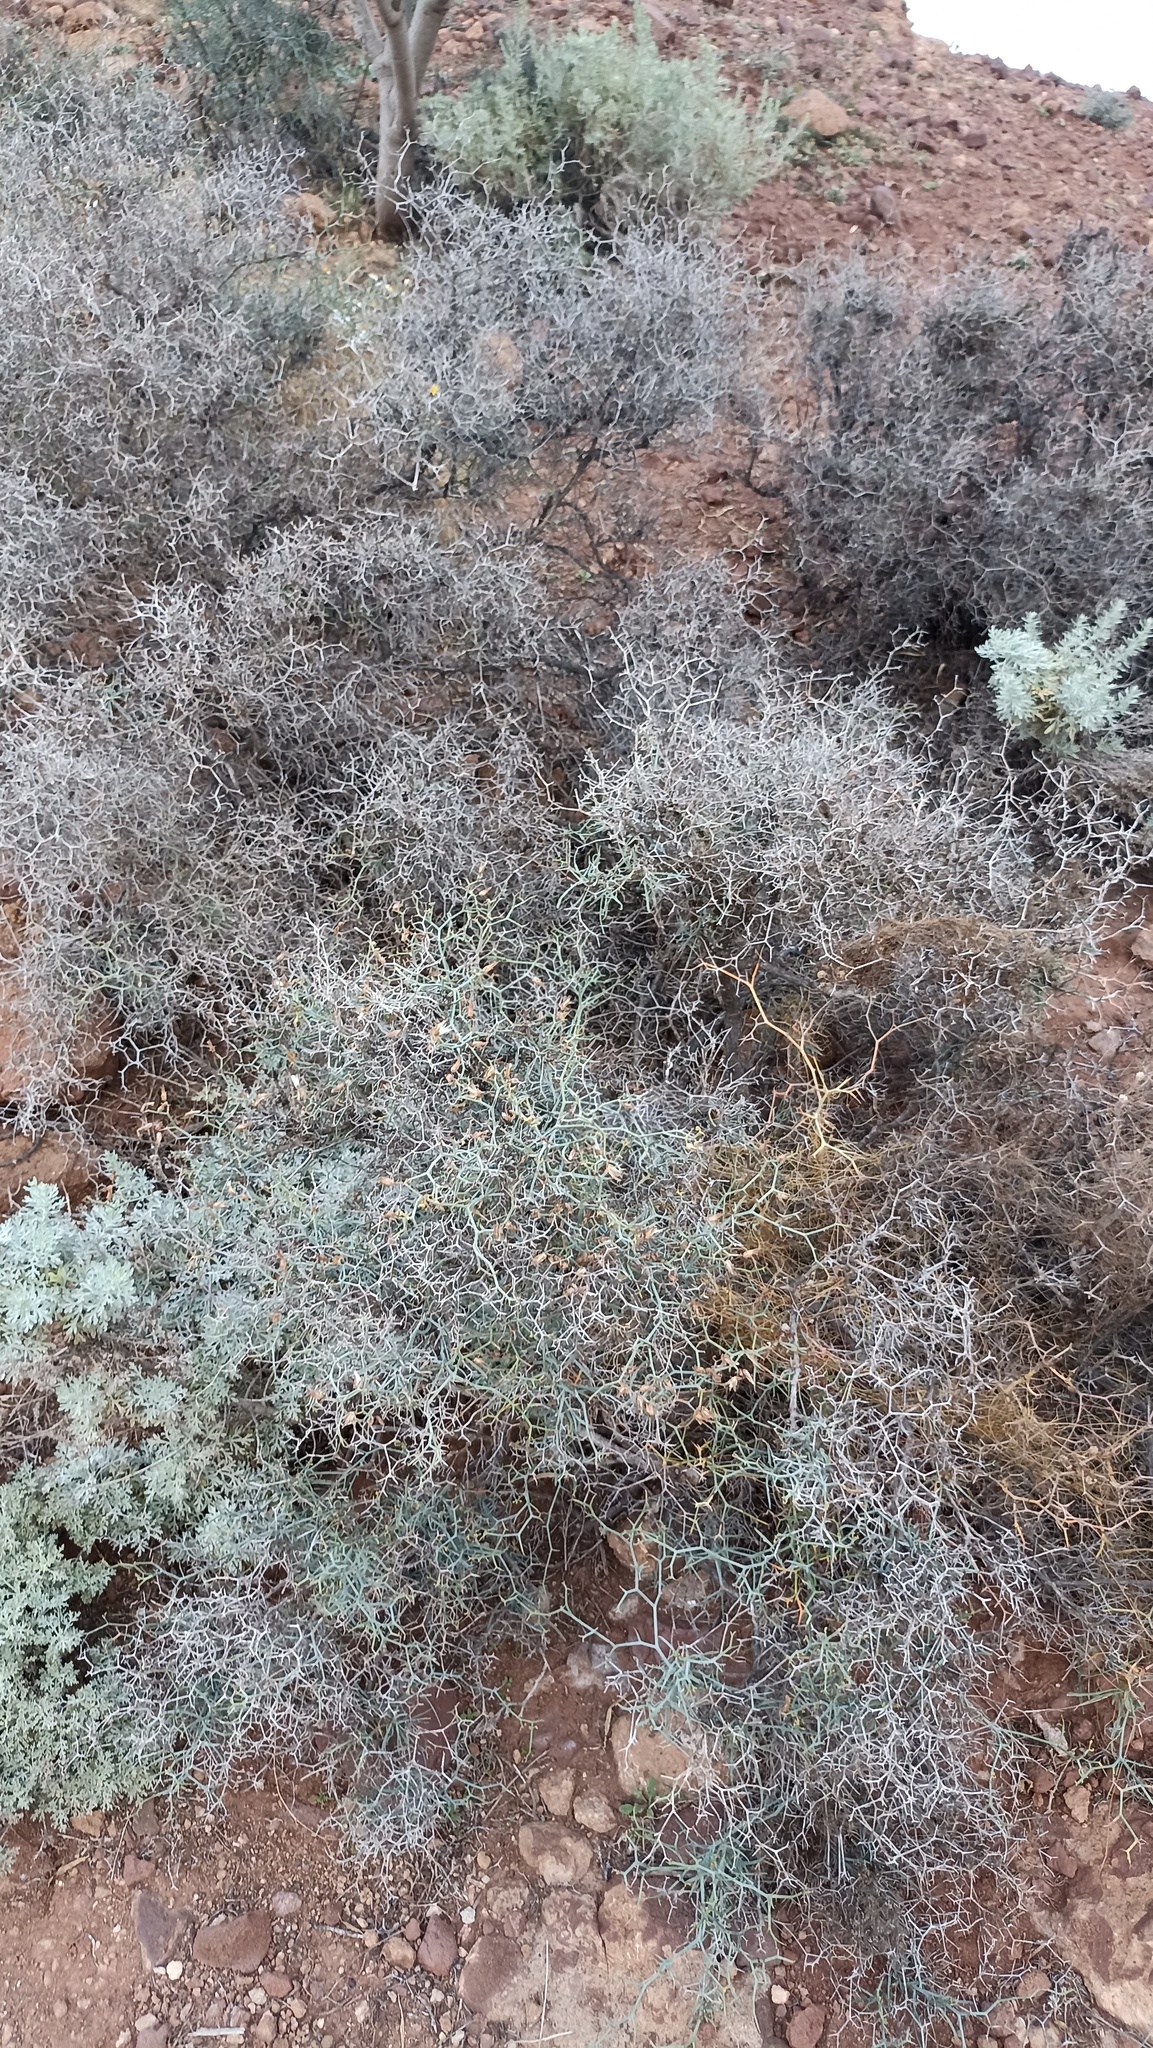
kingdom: Plantae
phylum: Tracheophyta
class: Magnoliopsida
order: Asterales
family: Asteraceae
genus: Launaea
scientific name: Launaea arborescens
